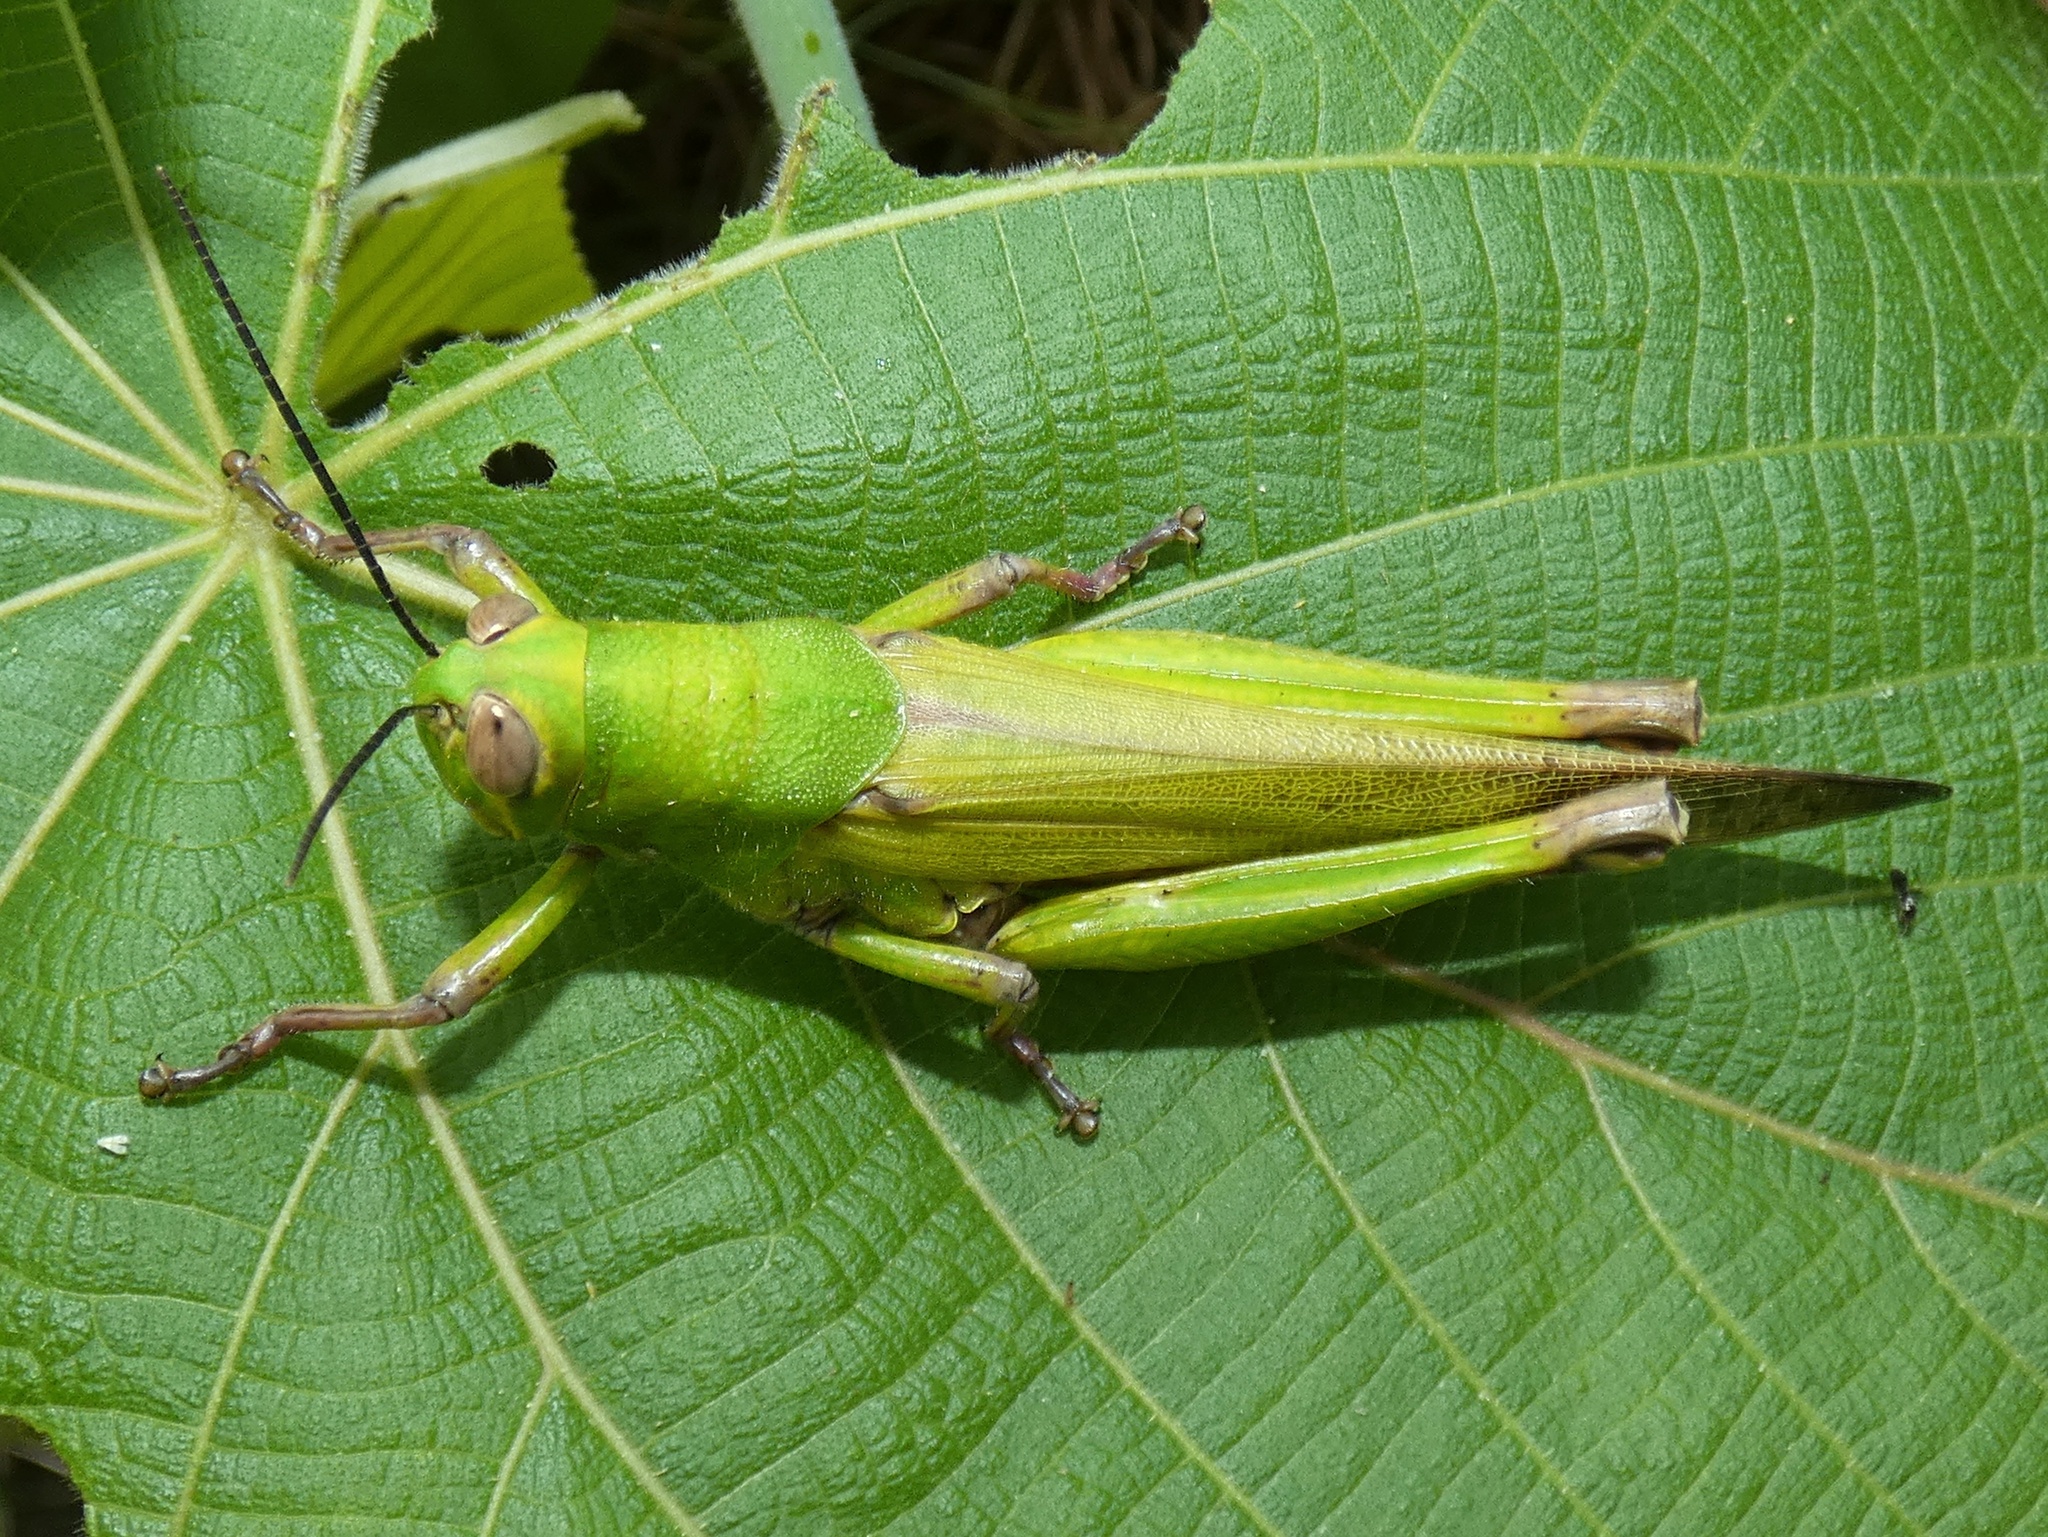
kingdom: Animalia
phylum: Arthropoda
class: Insecta
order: Orthoptera
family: Acrididae
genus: Valanga
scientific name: Valanga geniculata
